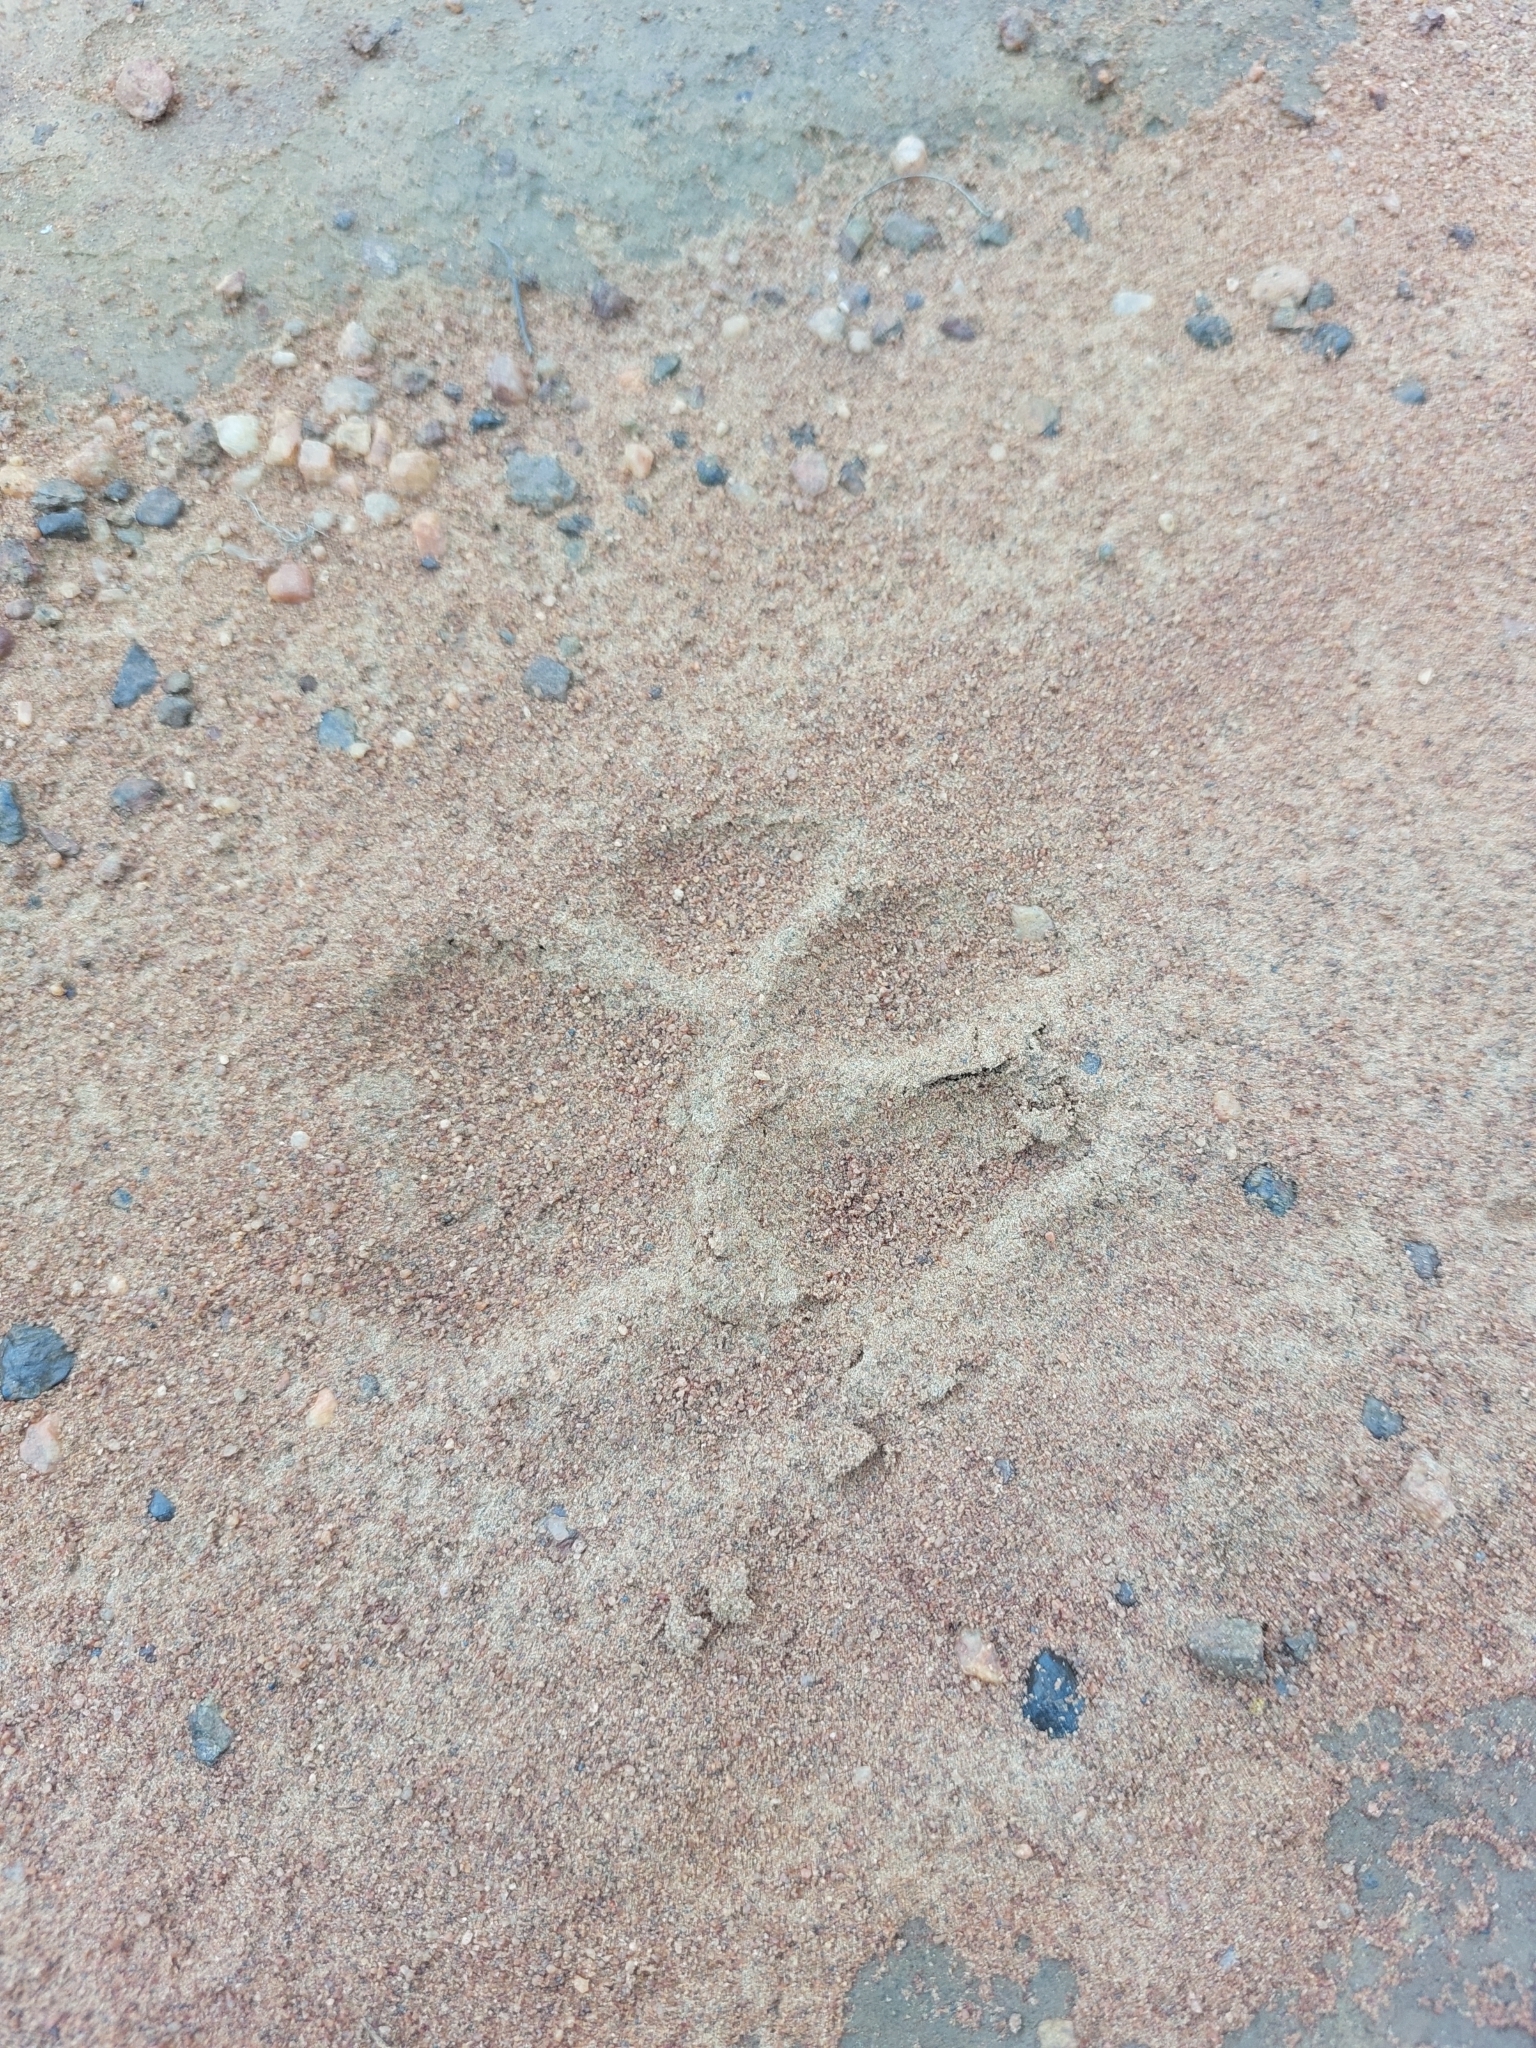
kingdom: Animalia
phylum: Chordata
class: Mammalia
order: Carnivora
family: Felidae
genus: Acinonyx
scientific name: Acinonyx jubatus
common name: Cheetah
